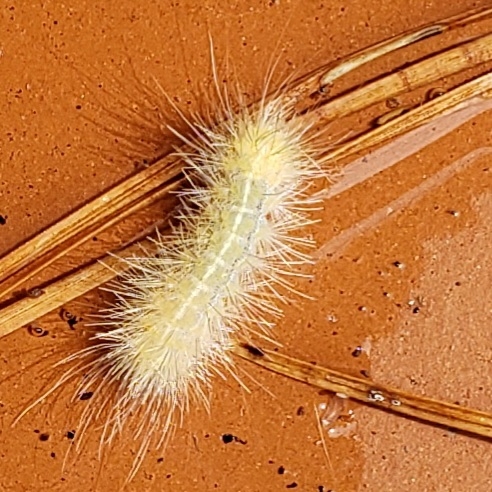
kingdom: Animalia
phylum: Arthropoda
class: Insecta
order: Lepidoptera
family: Erebidae
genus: Spilosoma
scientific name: Spilosoma virginica
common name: Virginia tiger moth
